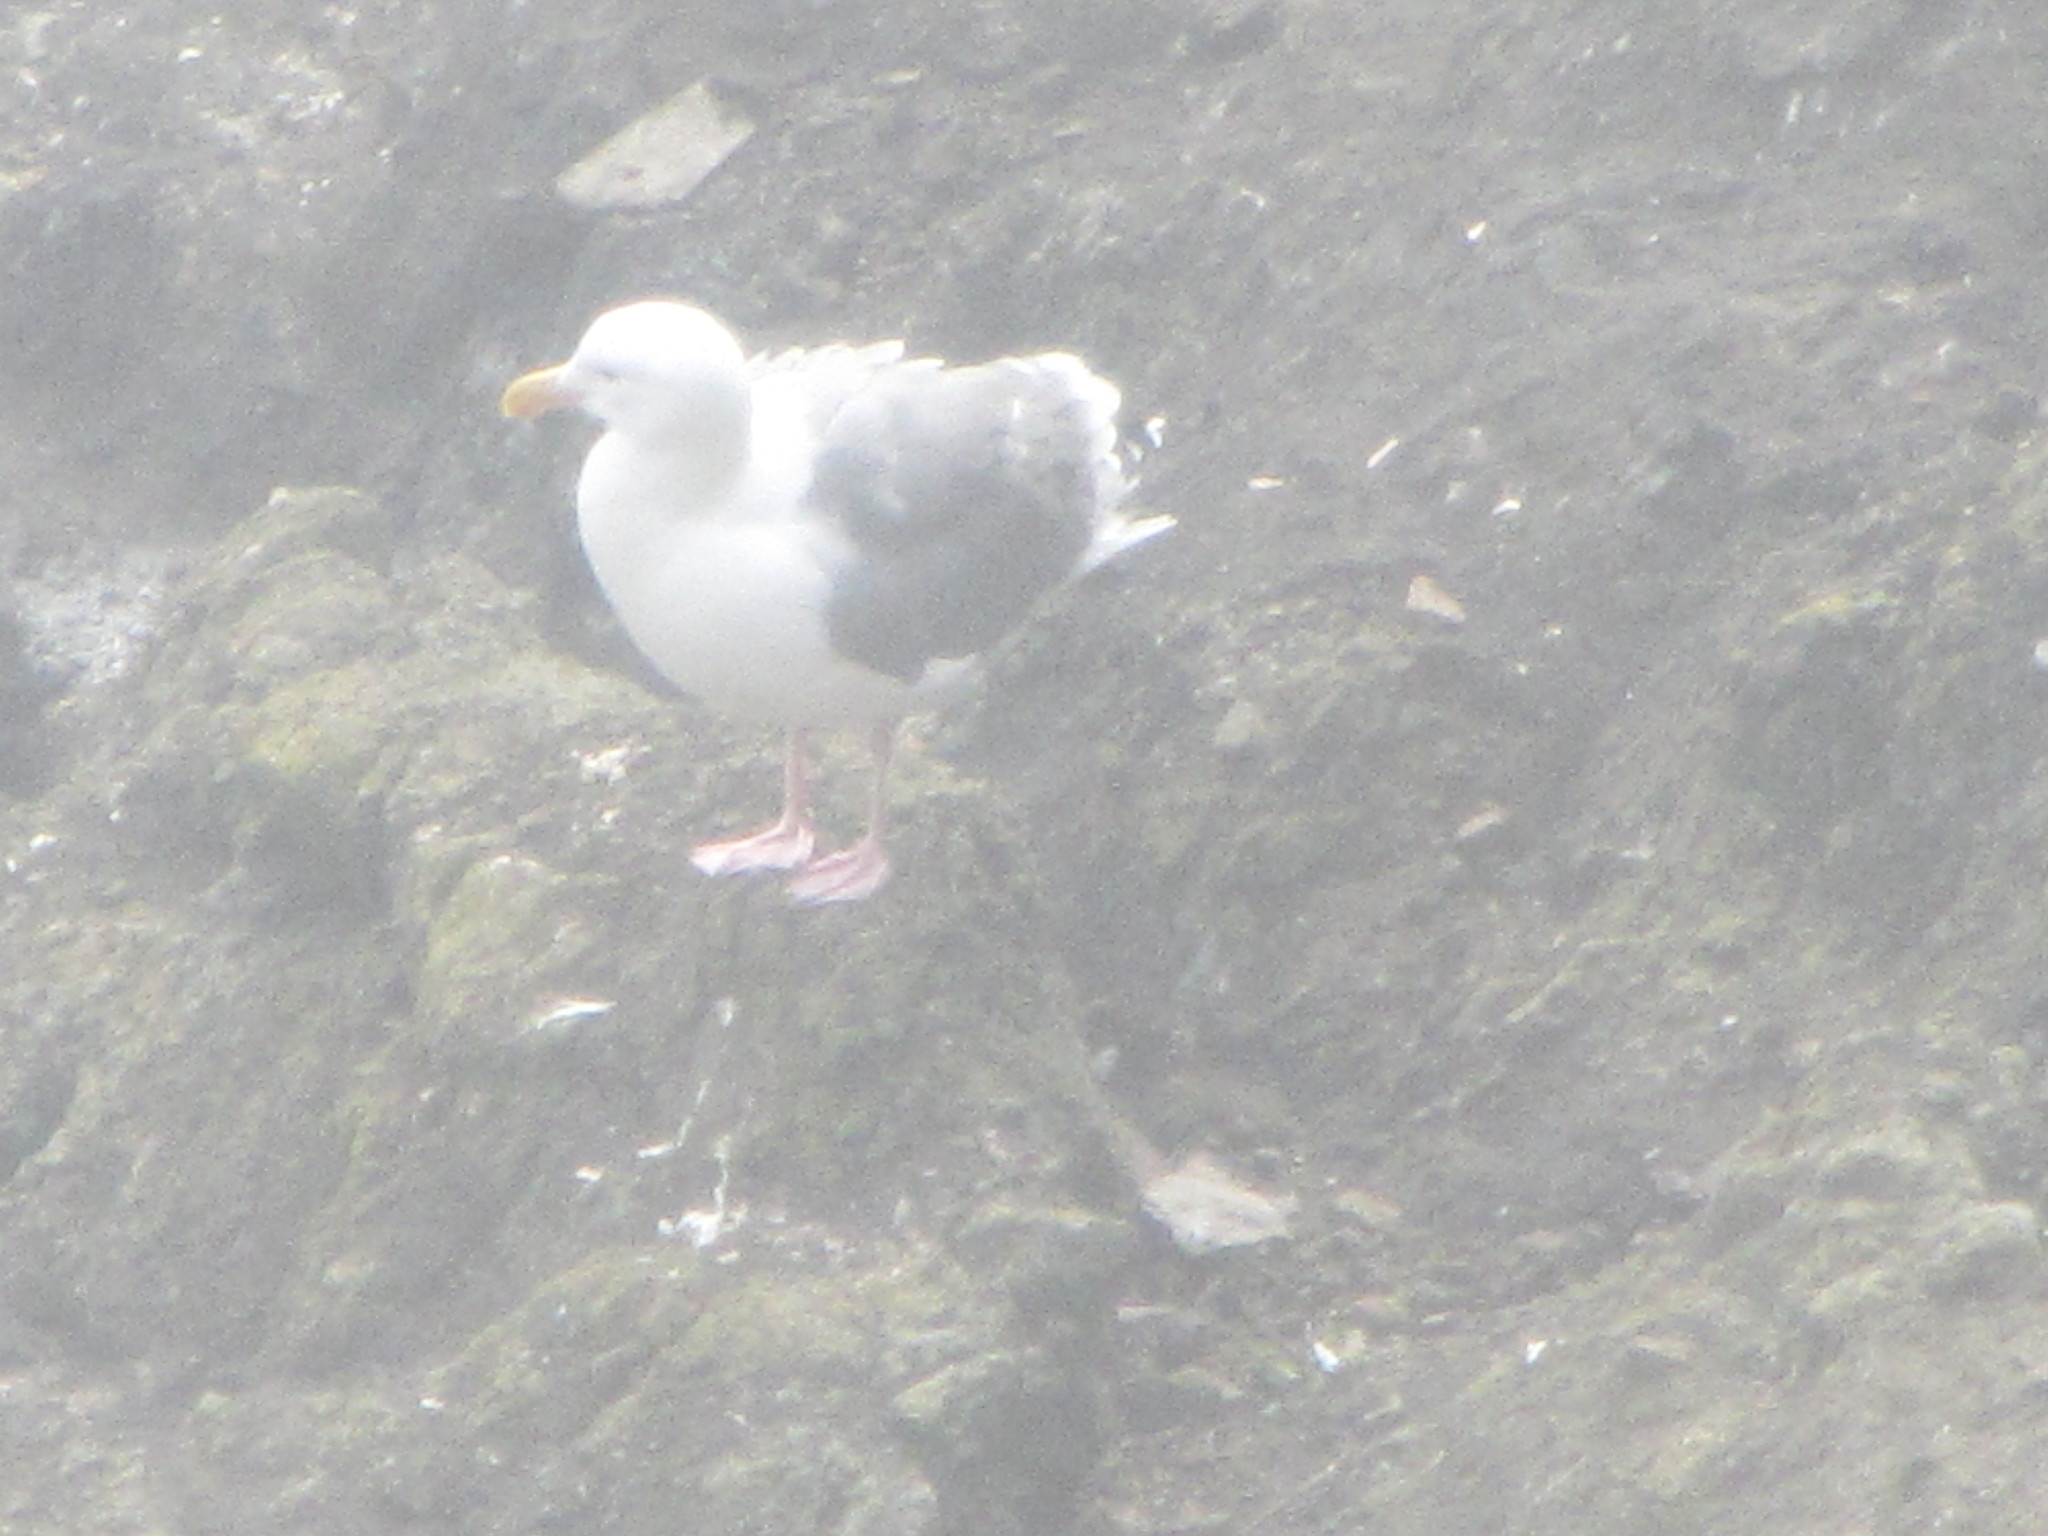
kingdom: Animalia
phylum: Chordata
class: Aves
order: Charadriiformes
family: Laridae
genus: Larus
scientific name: Larus occidentalis
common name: Western gull
